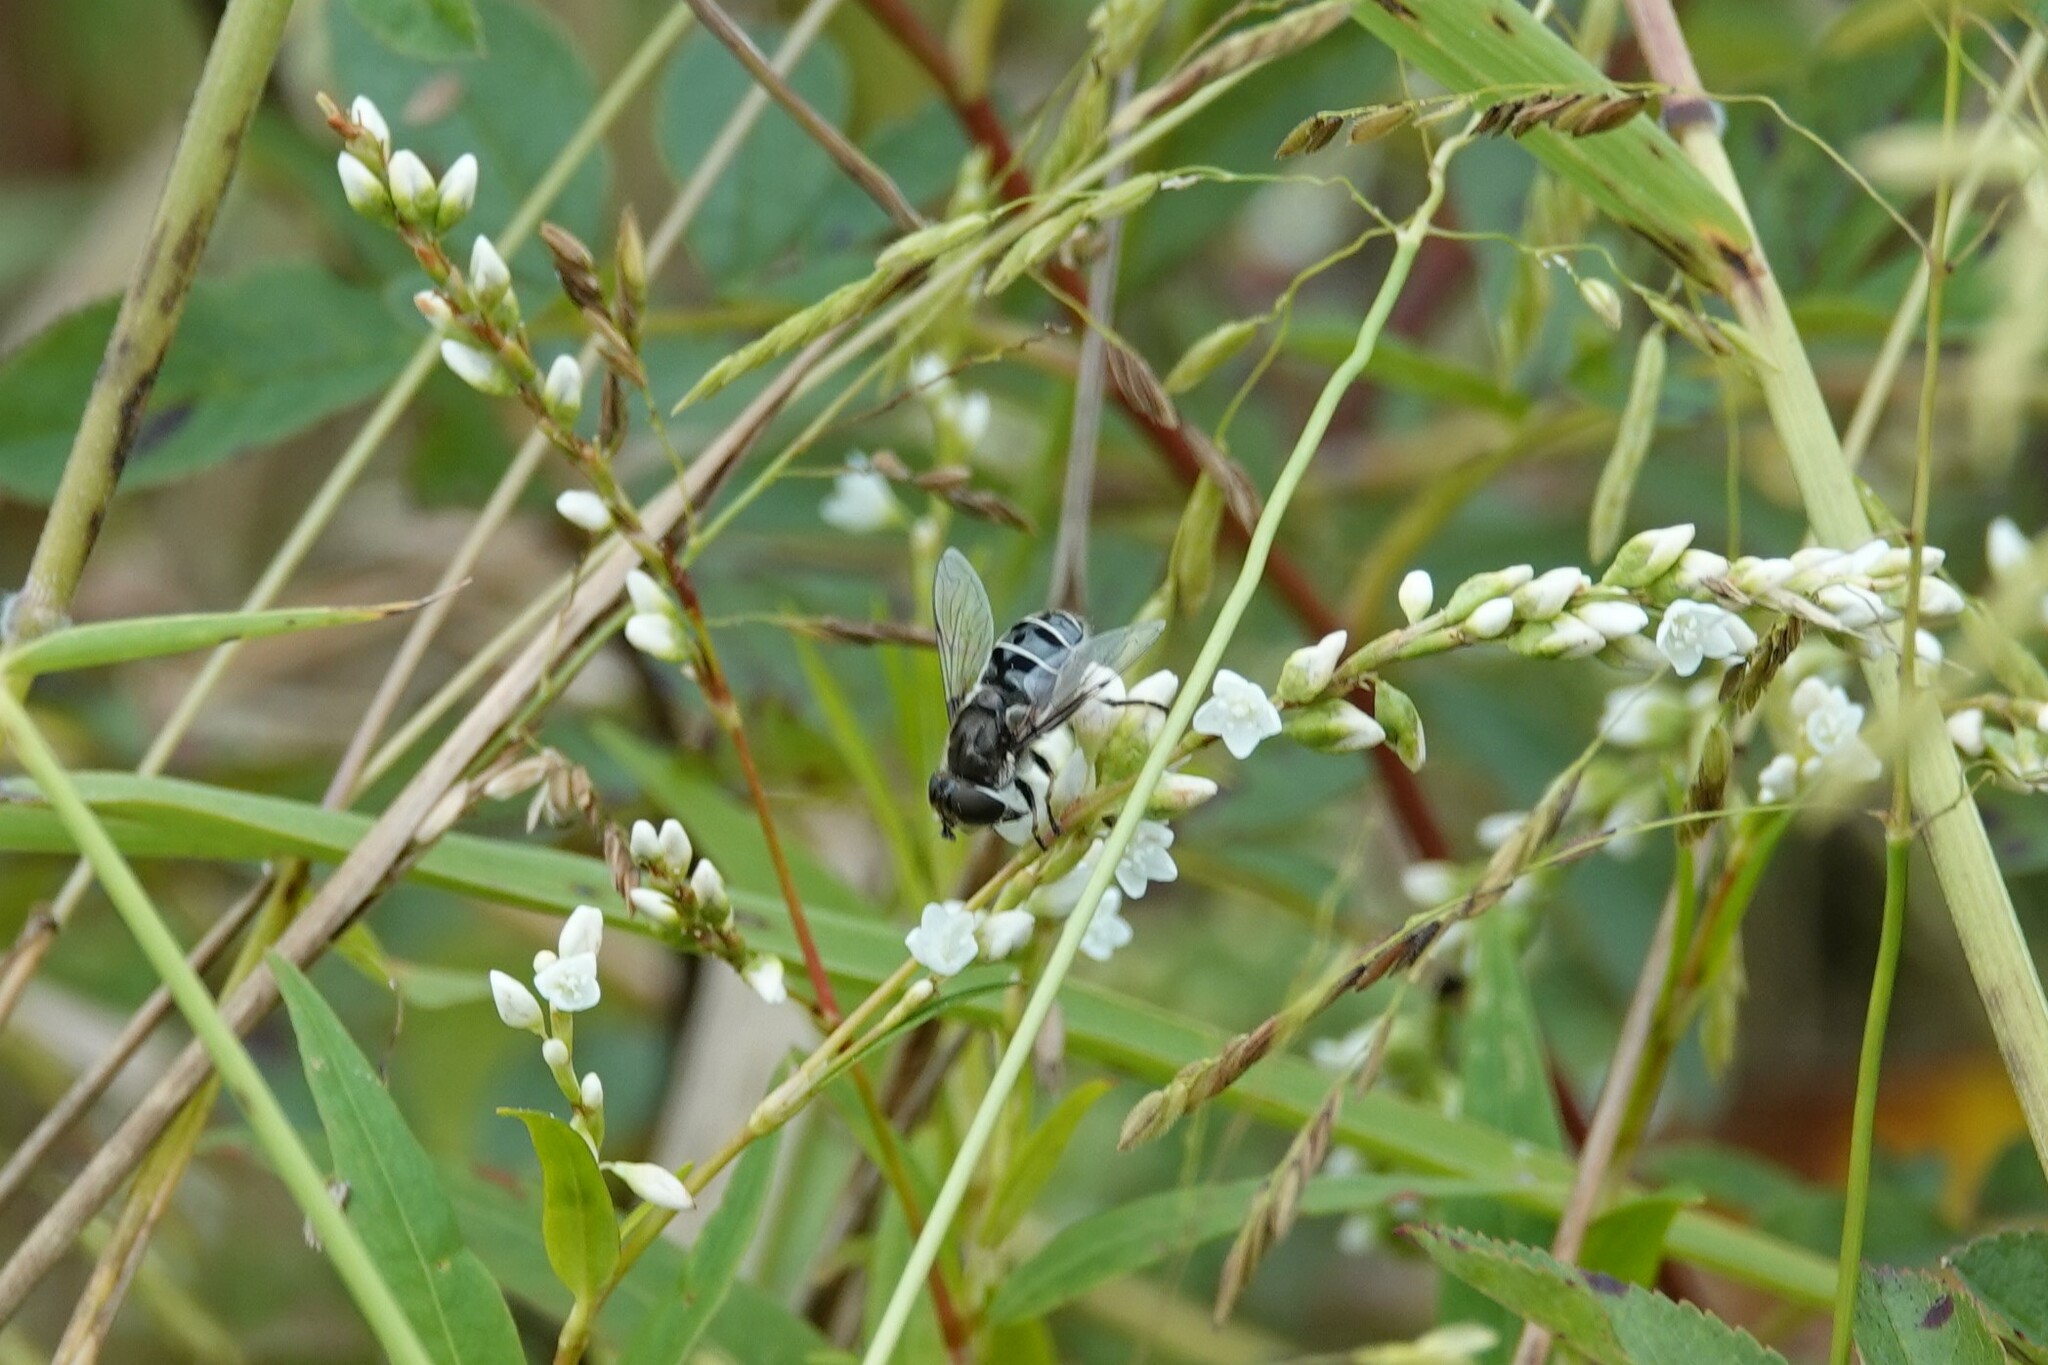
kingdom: Animalia
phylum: Arthropoda
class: Insecta
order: Diptera
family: Syrphidae
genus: Eristalis
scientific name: Eristalis dimidiata
